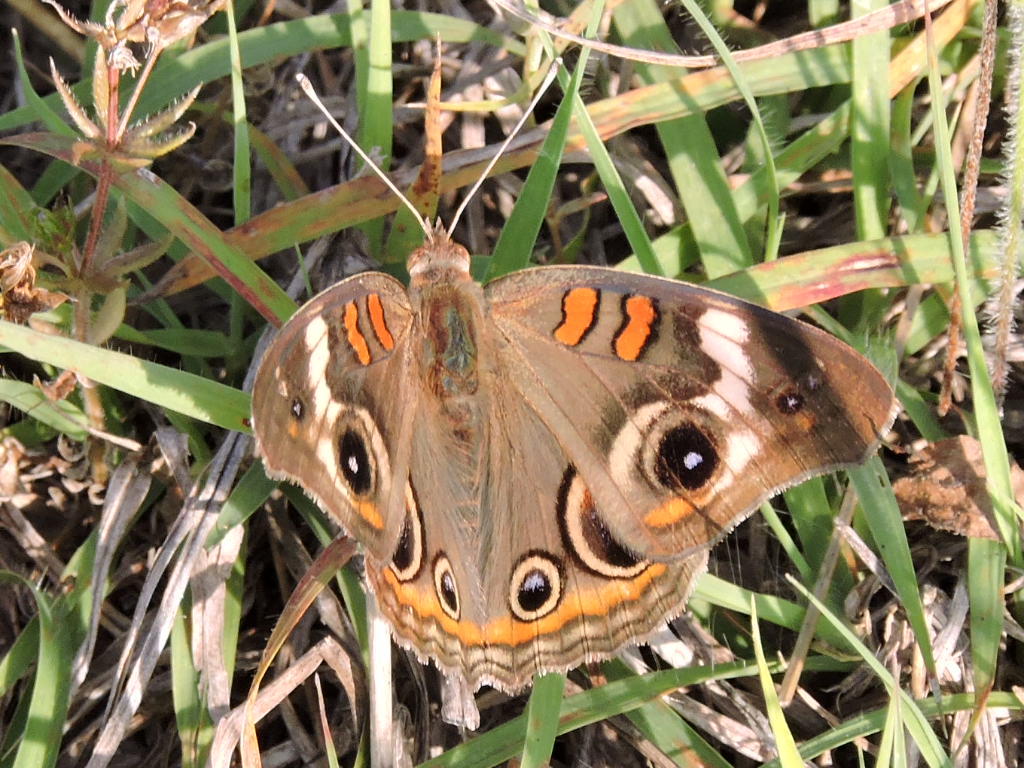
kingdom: Animalia
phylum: Arthropoda
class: Insecta
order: Lepidoptera
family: Nymphalidae
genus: Junonia
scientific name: Junonia coenia
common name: Common buckeye
